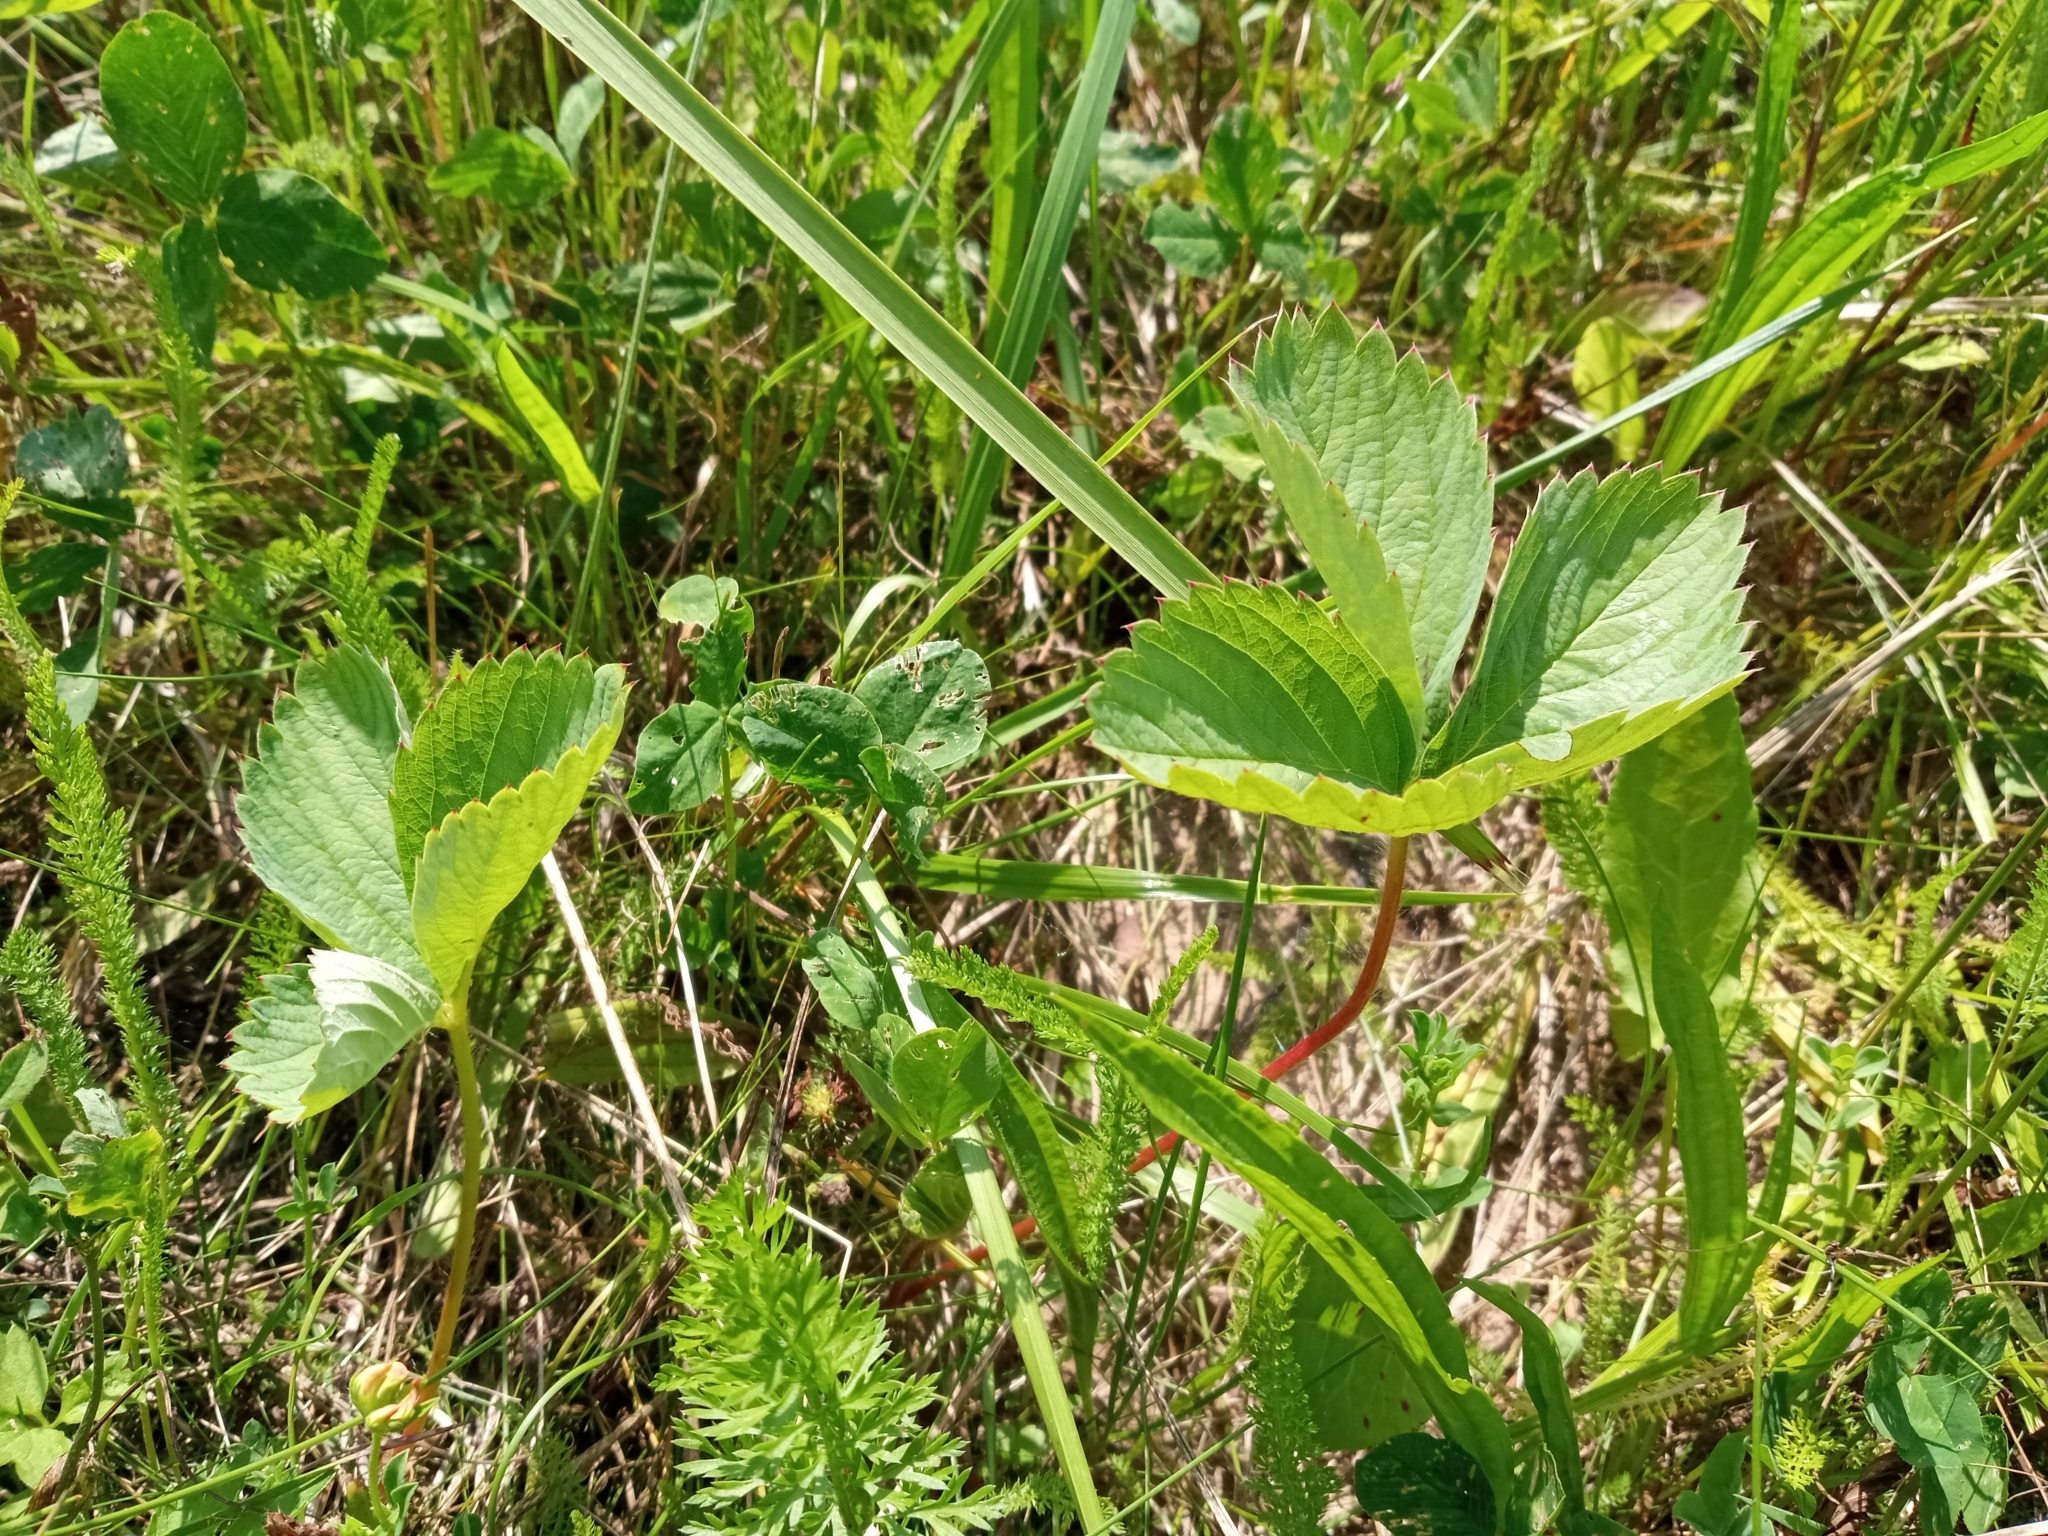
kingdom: Plantae
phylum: Tracheophyta
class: Magnoliopsida
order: Rosales
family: Rosaceae
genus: Fragaria
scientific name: Fragaria ananassa
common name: Garden strawberry
